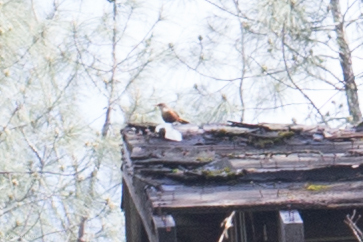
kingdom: Animalia
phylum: Chordata
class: Aves
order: Passeriformes
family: Troglodytidae
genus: Catherpes
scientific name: Catherpes mexicanus
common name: Canyon wren
